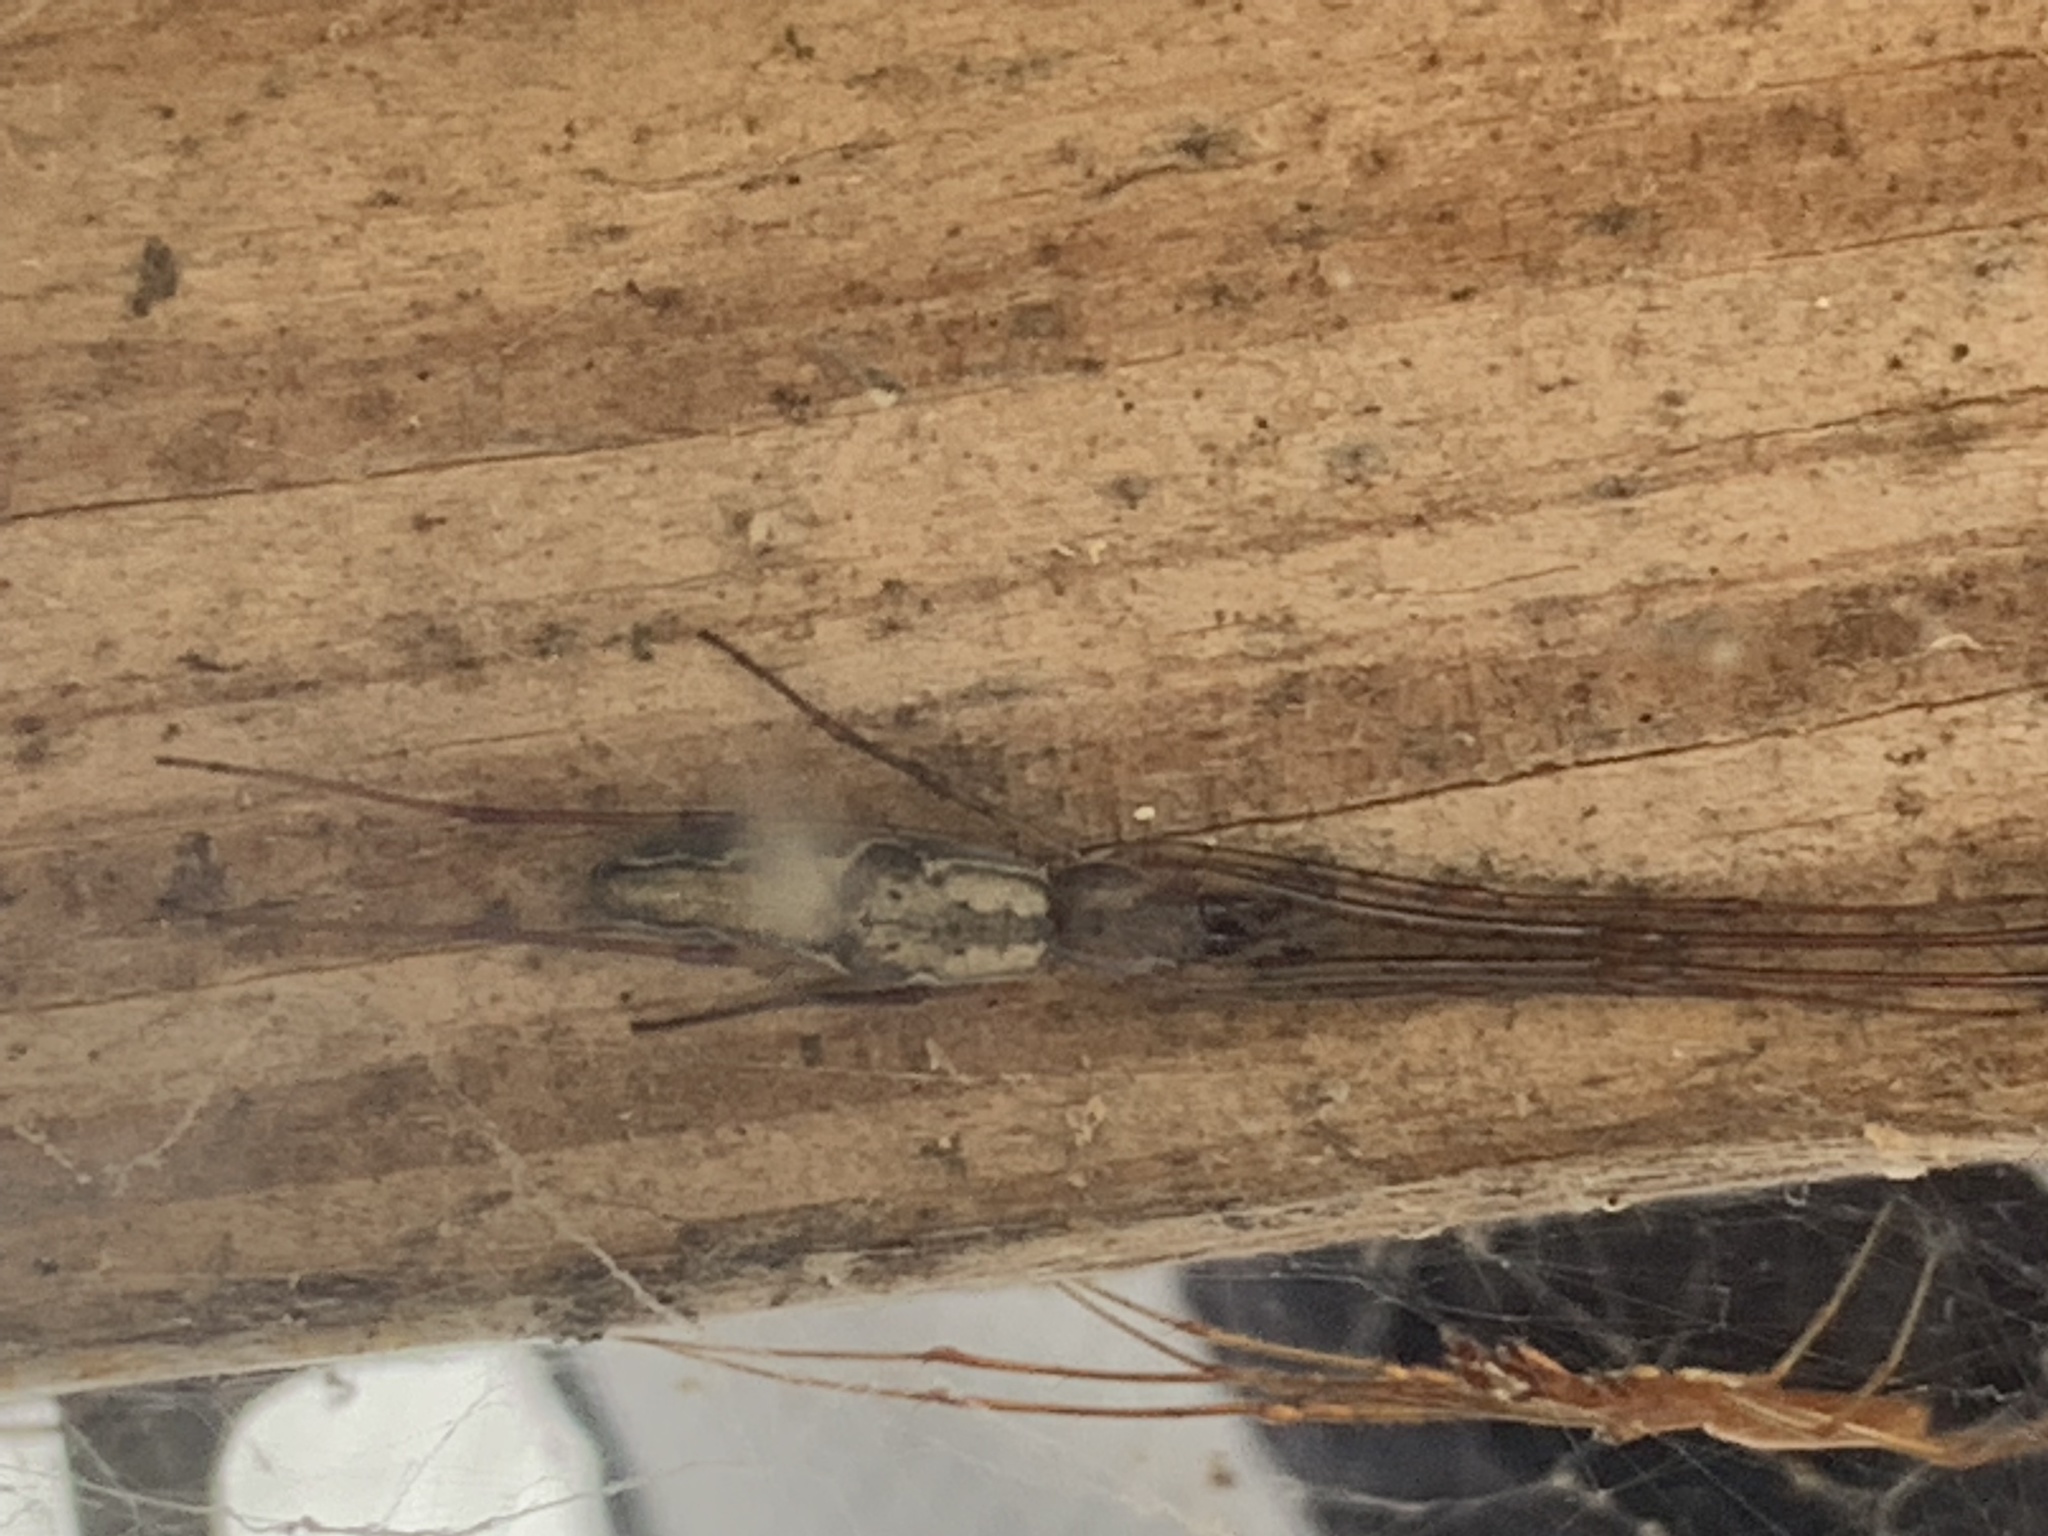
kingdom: Animalia
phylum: Arthropoda
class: Arachnida
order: Araneae
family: Tetragnathidae
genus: Tetragnatha
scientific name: Tetragnatha
